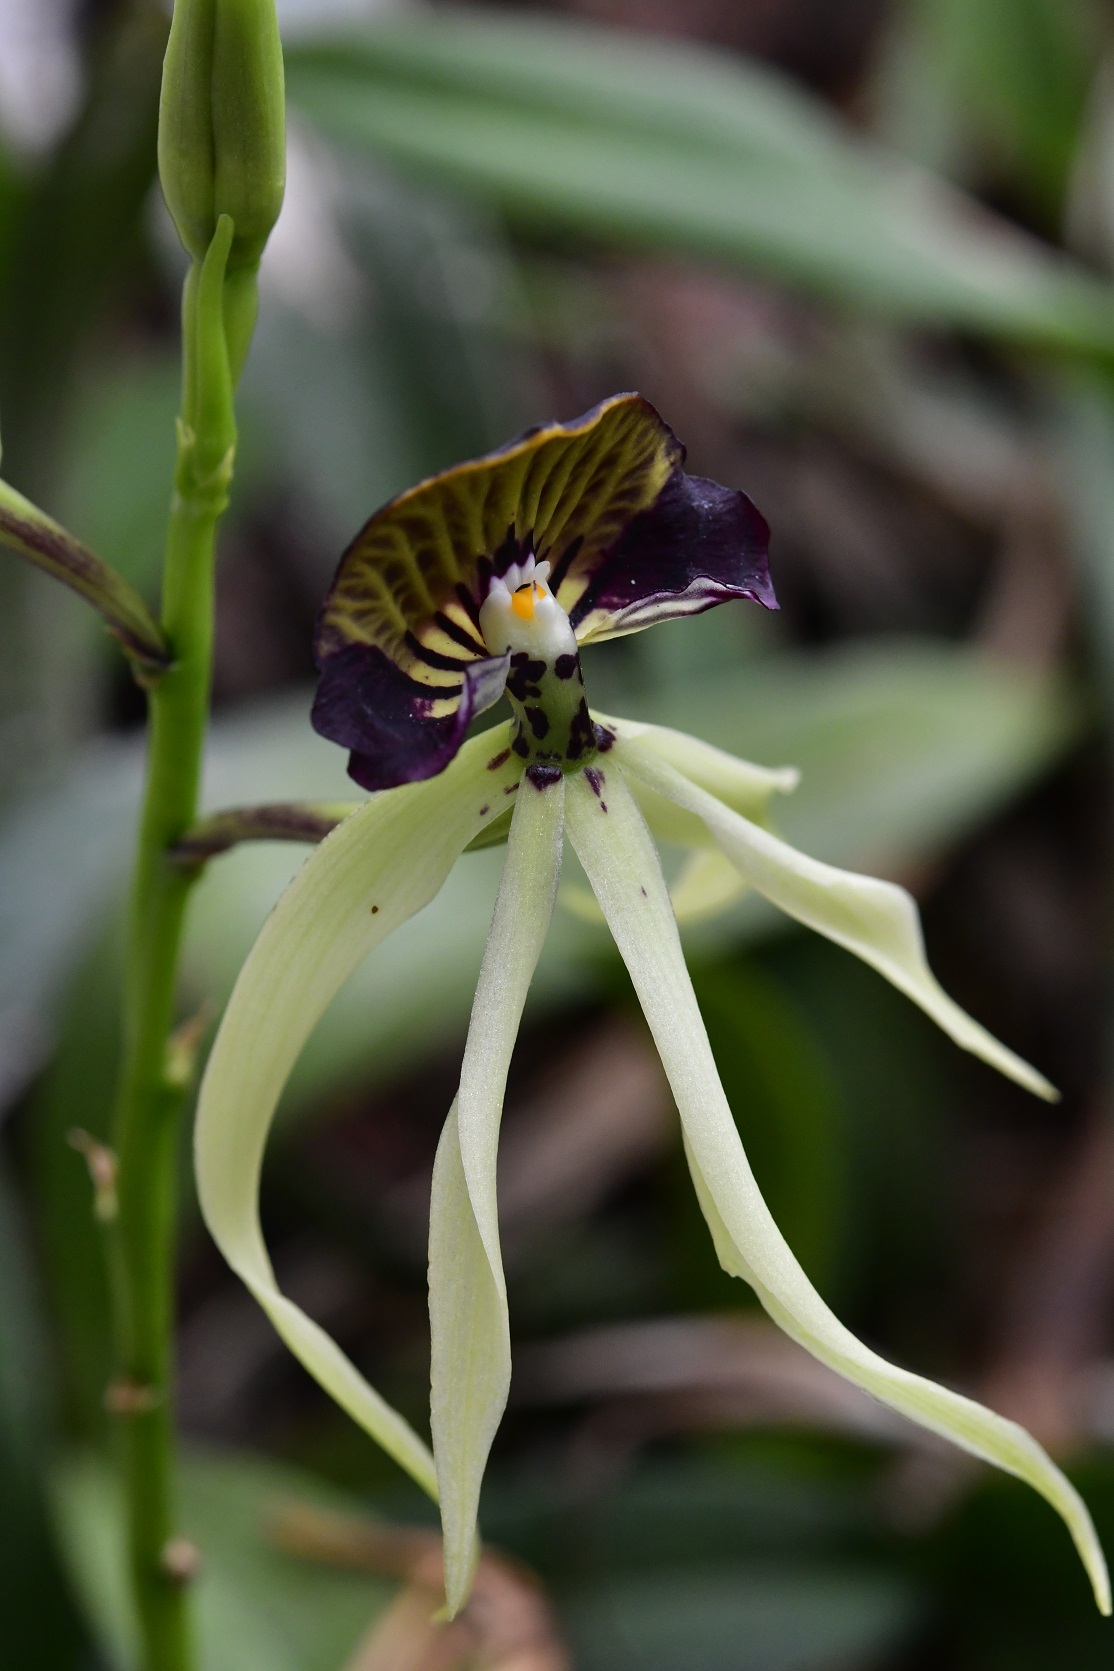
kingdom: Plantae
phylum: Tracheophyta
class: Liliopsida
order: Asparagales
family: Orchidaceae
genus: Prosthechea
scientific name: Prosthechea cochleata
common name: Clamshell orchid
